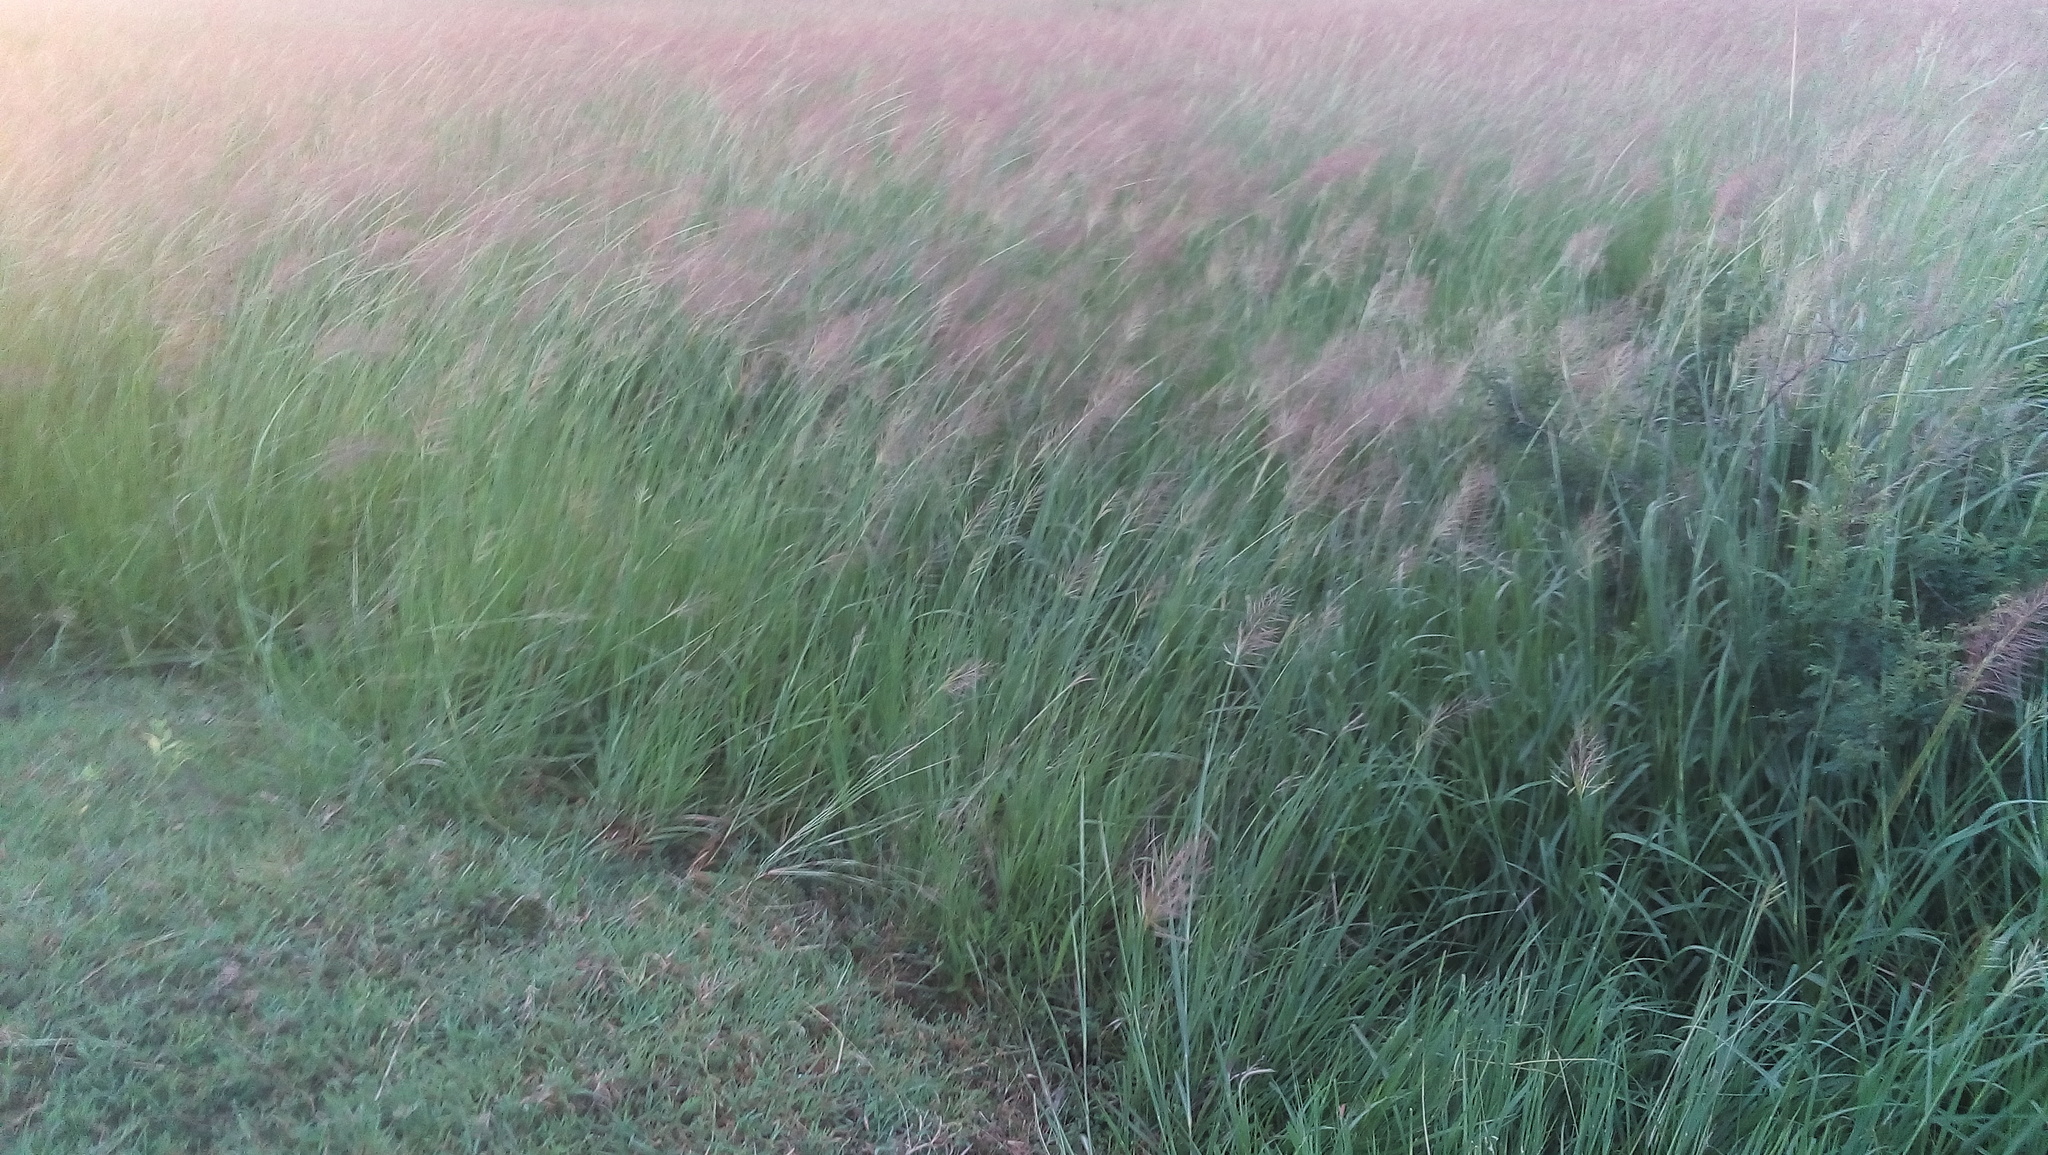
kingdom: Plantae
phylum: Tracheophyta
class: Liliopsida
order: Poales
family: Poaceae
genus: Melinis
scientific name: Melinis repens
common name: Rose natal grass
